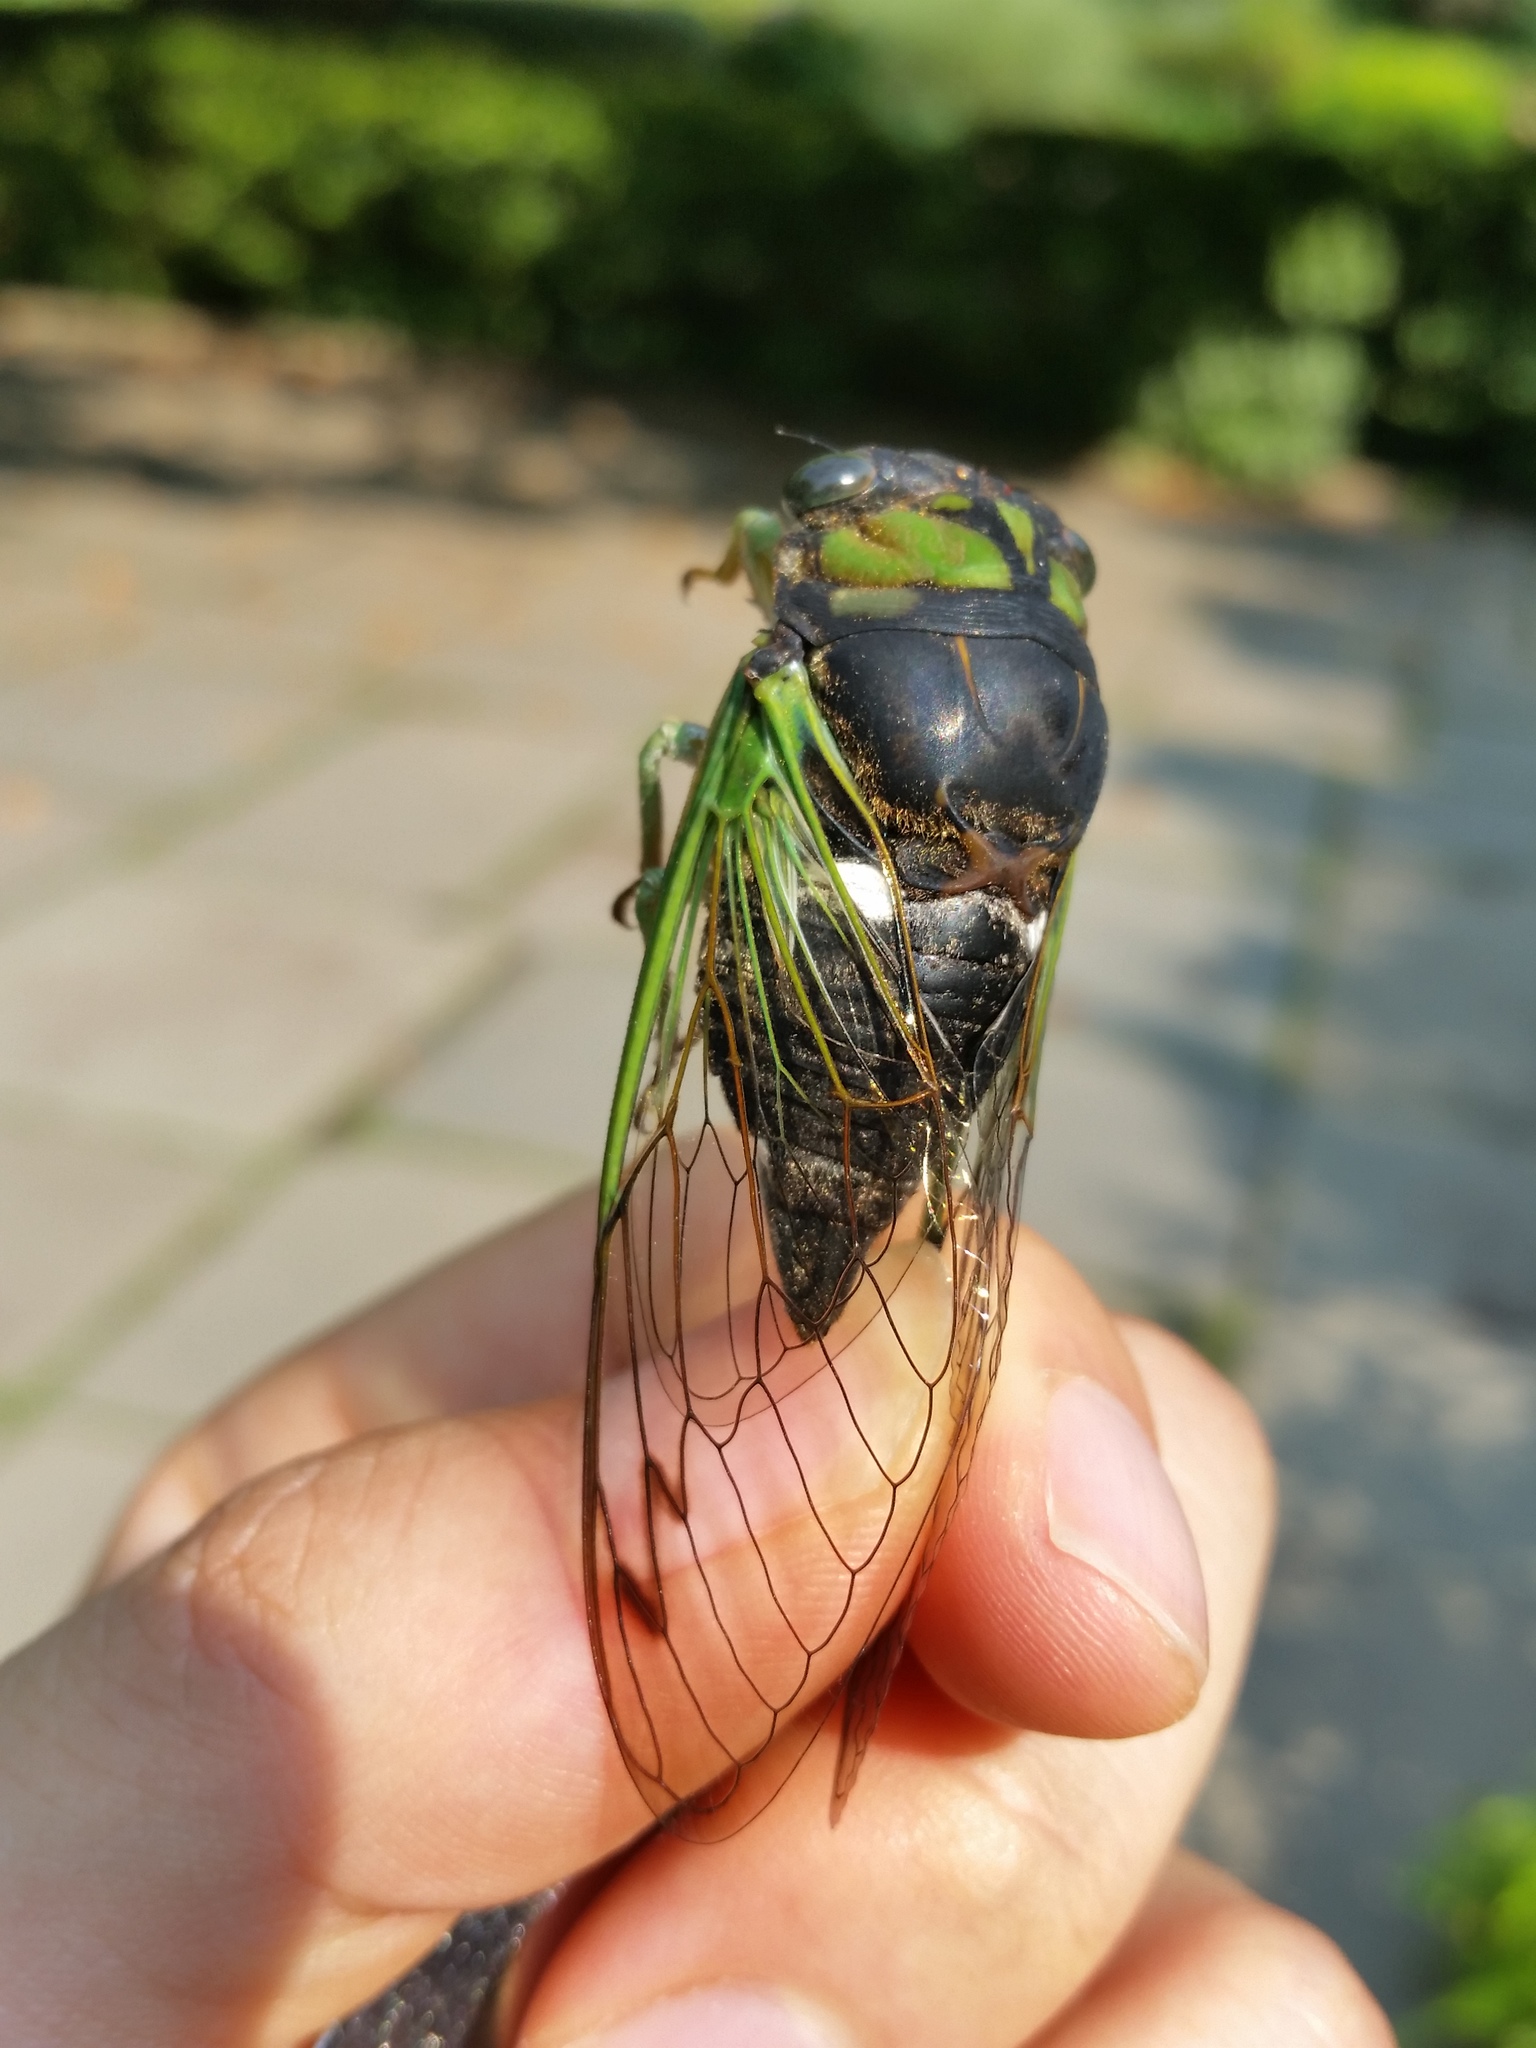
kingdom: Animalia
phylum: Arthropoda
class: Insecta
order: Hemiptera
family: Cicadidae
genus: Neotibicen
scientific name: Neotibicen tibicen
